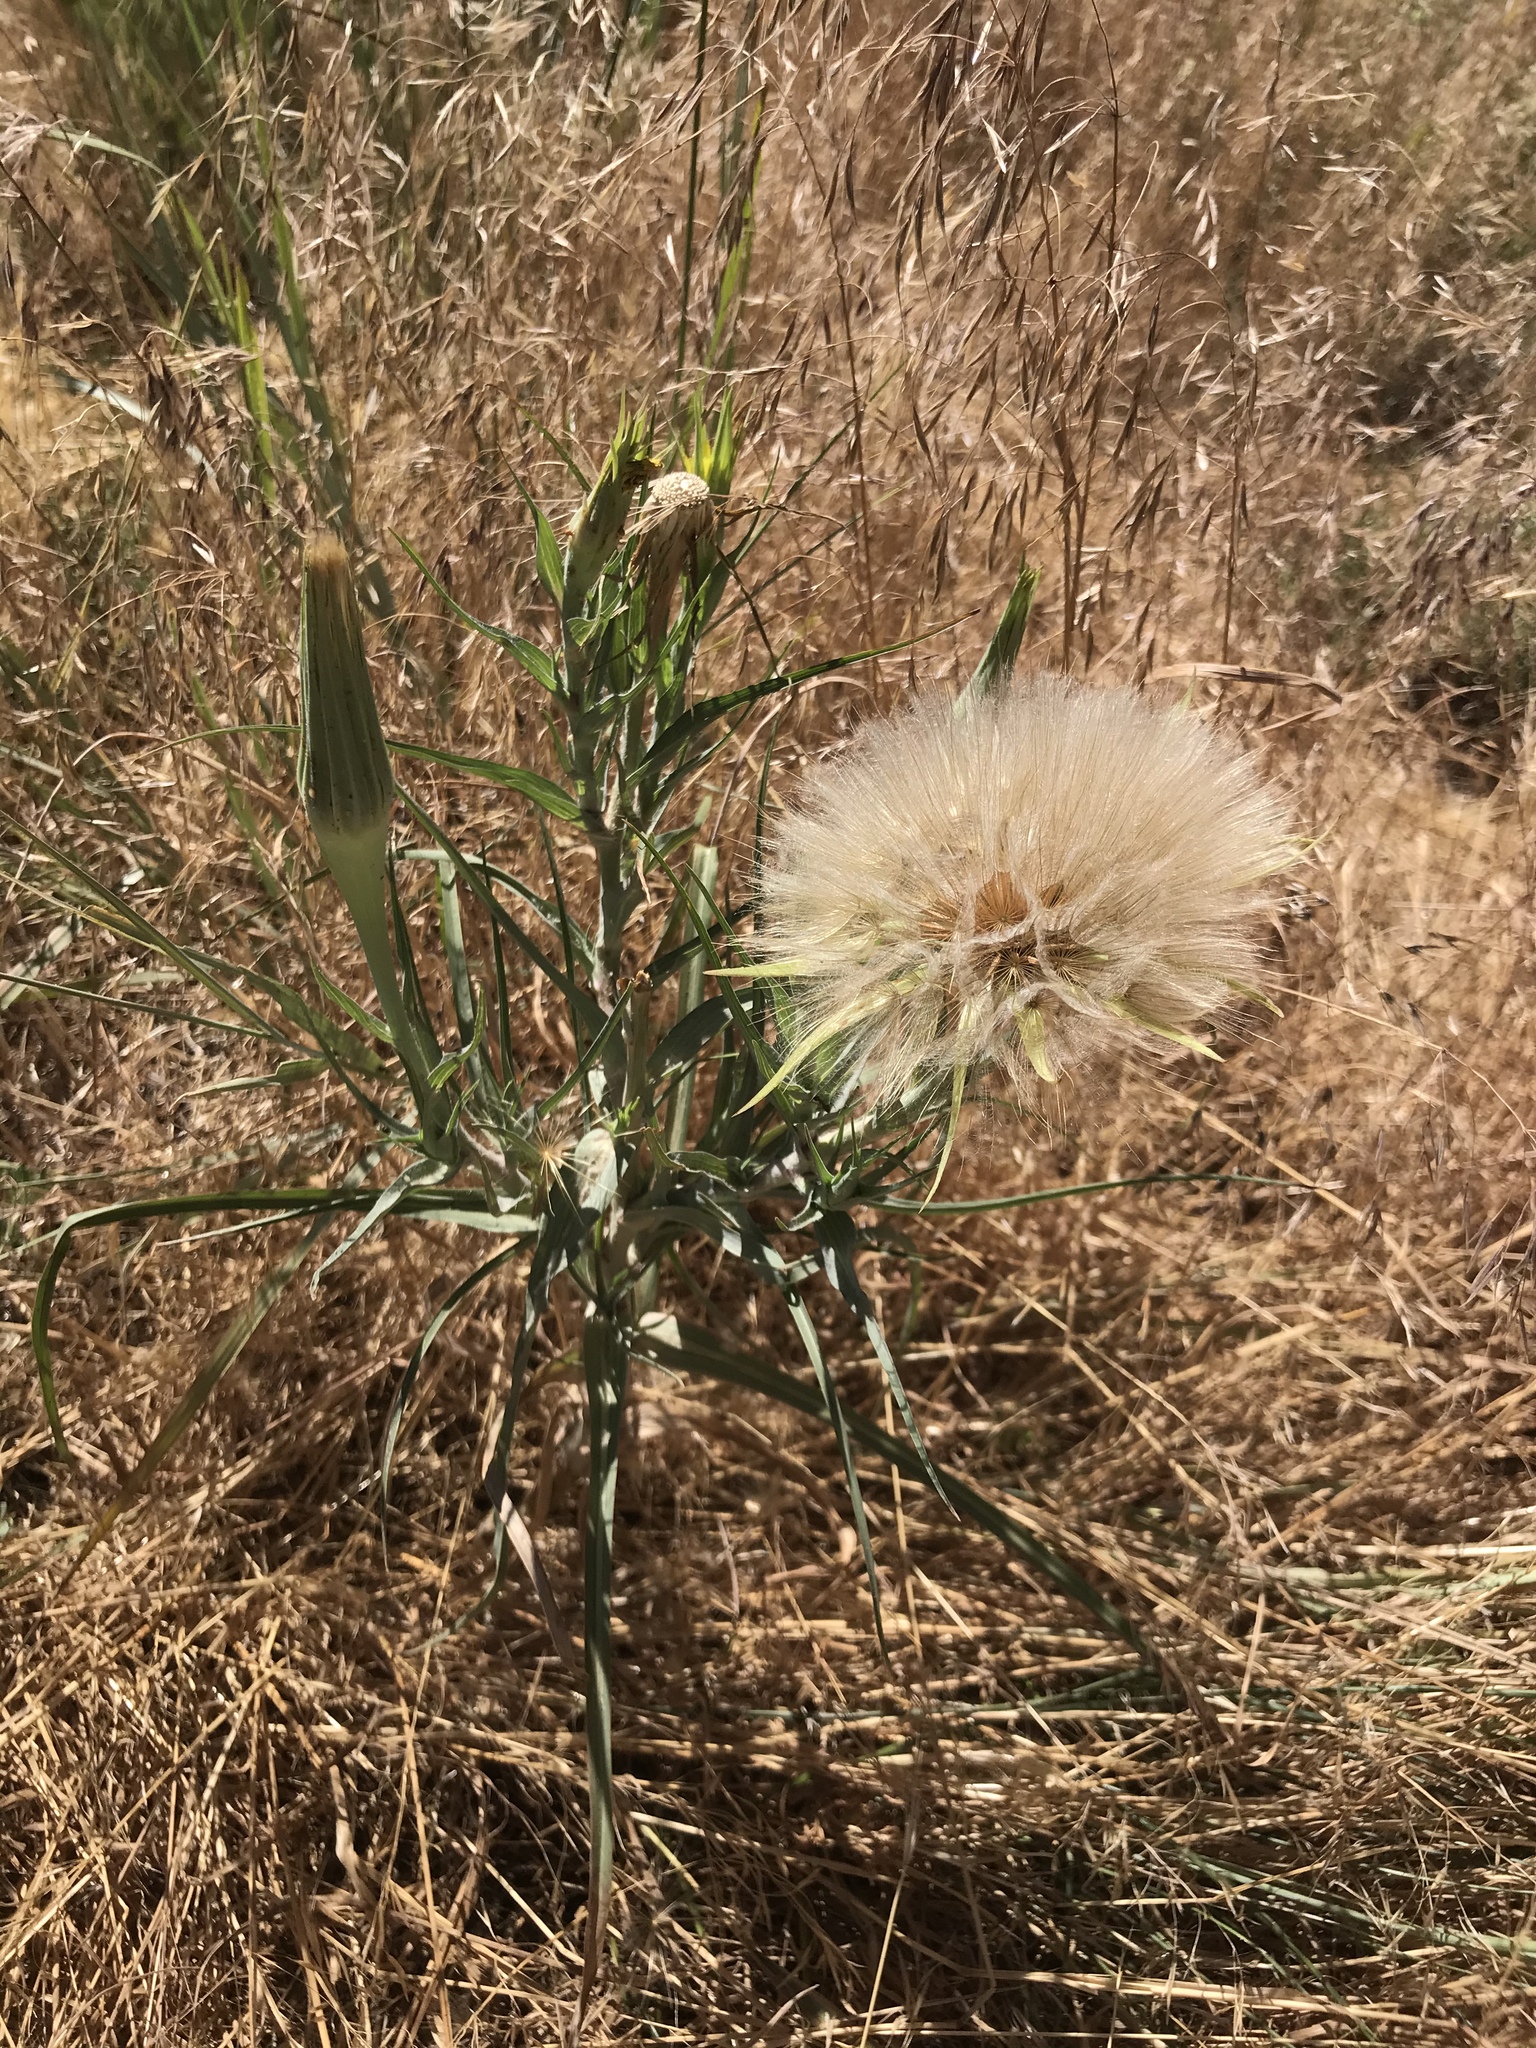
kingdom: Plantae
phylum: Tracheophyta
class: Magnoliopsida
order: Asterales
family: Asteraceae
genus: Tragopogon
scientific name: Tragopogon dubius
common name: Yellow salsify
